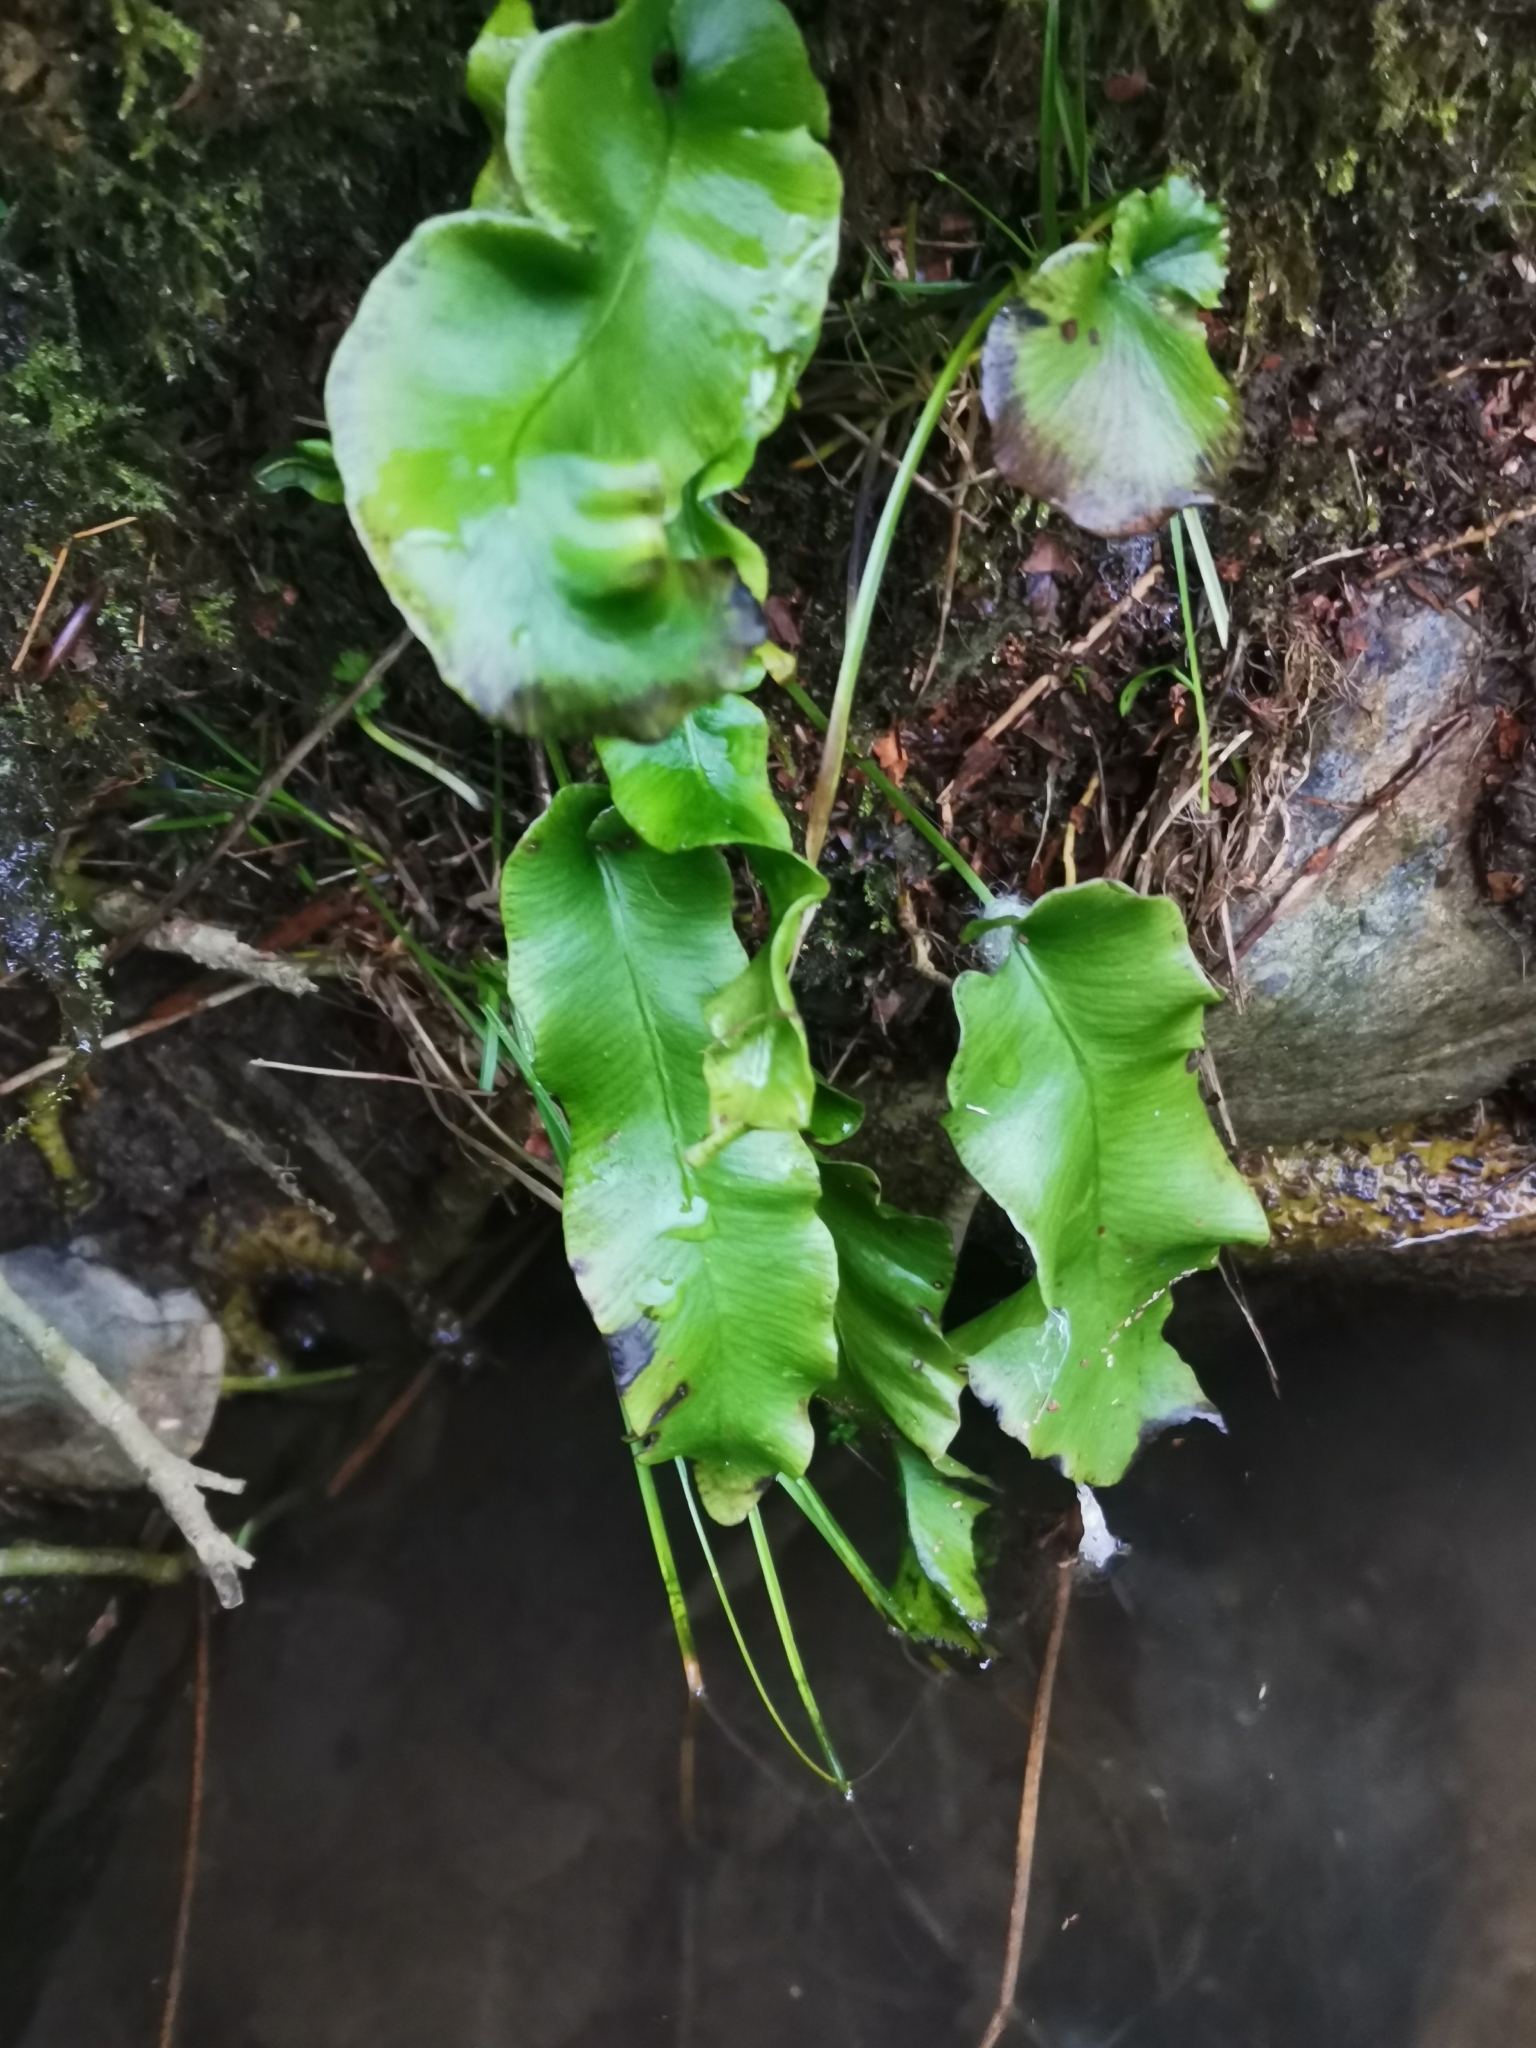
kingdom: Plantae
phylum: Tracheophyta
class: Polypodiopsida
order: Polypodiales
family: Aspleniaceae
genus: Asplenium
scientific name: Asplenium scolopendrium
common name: Hart's-tongue fern
